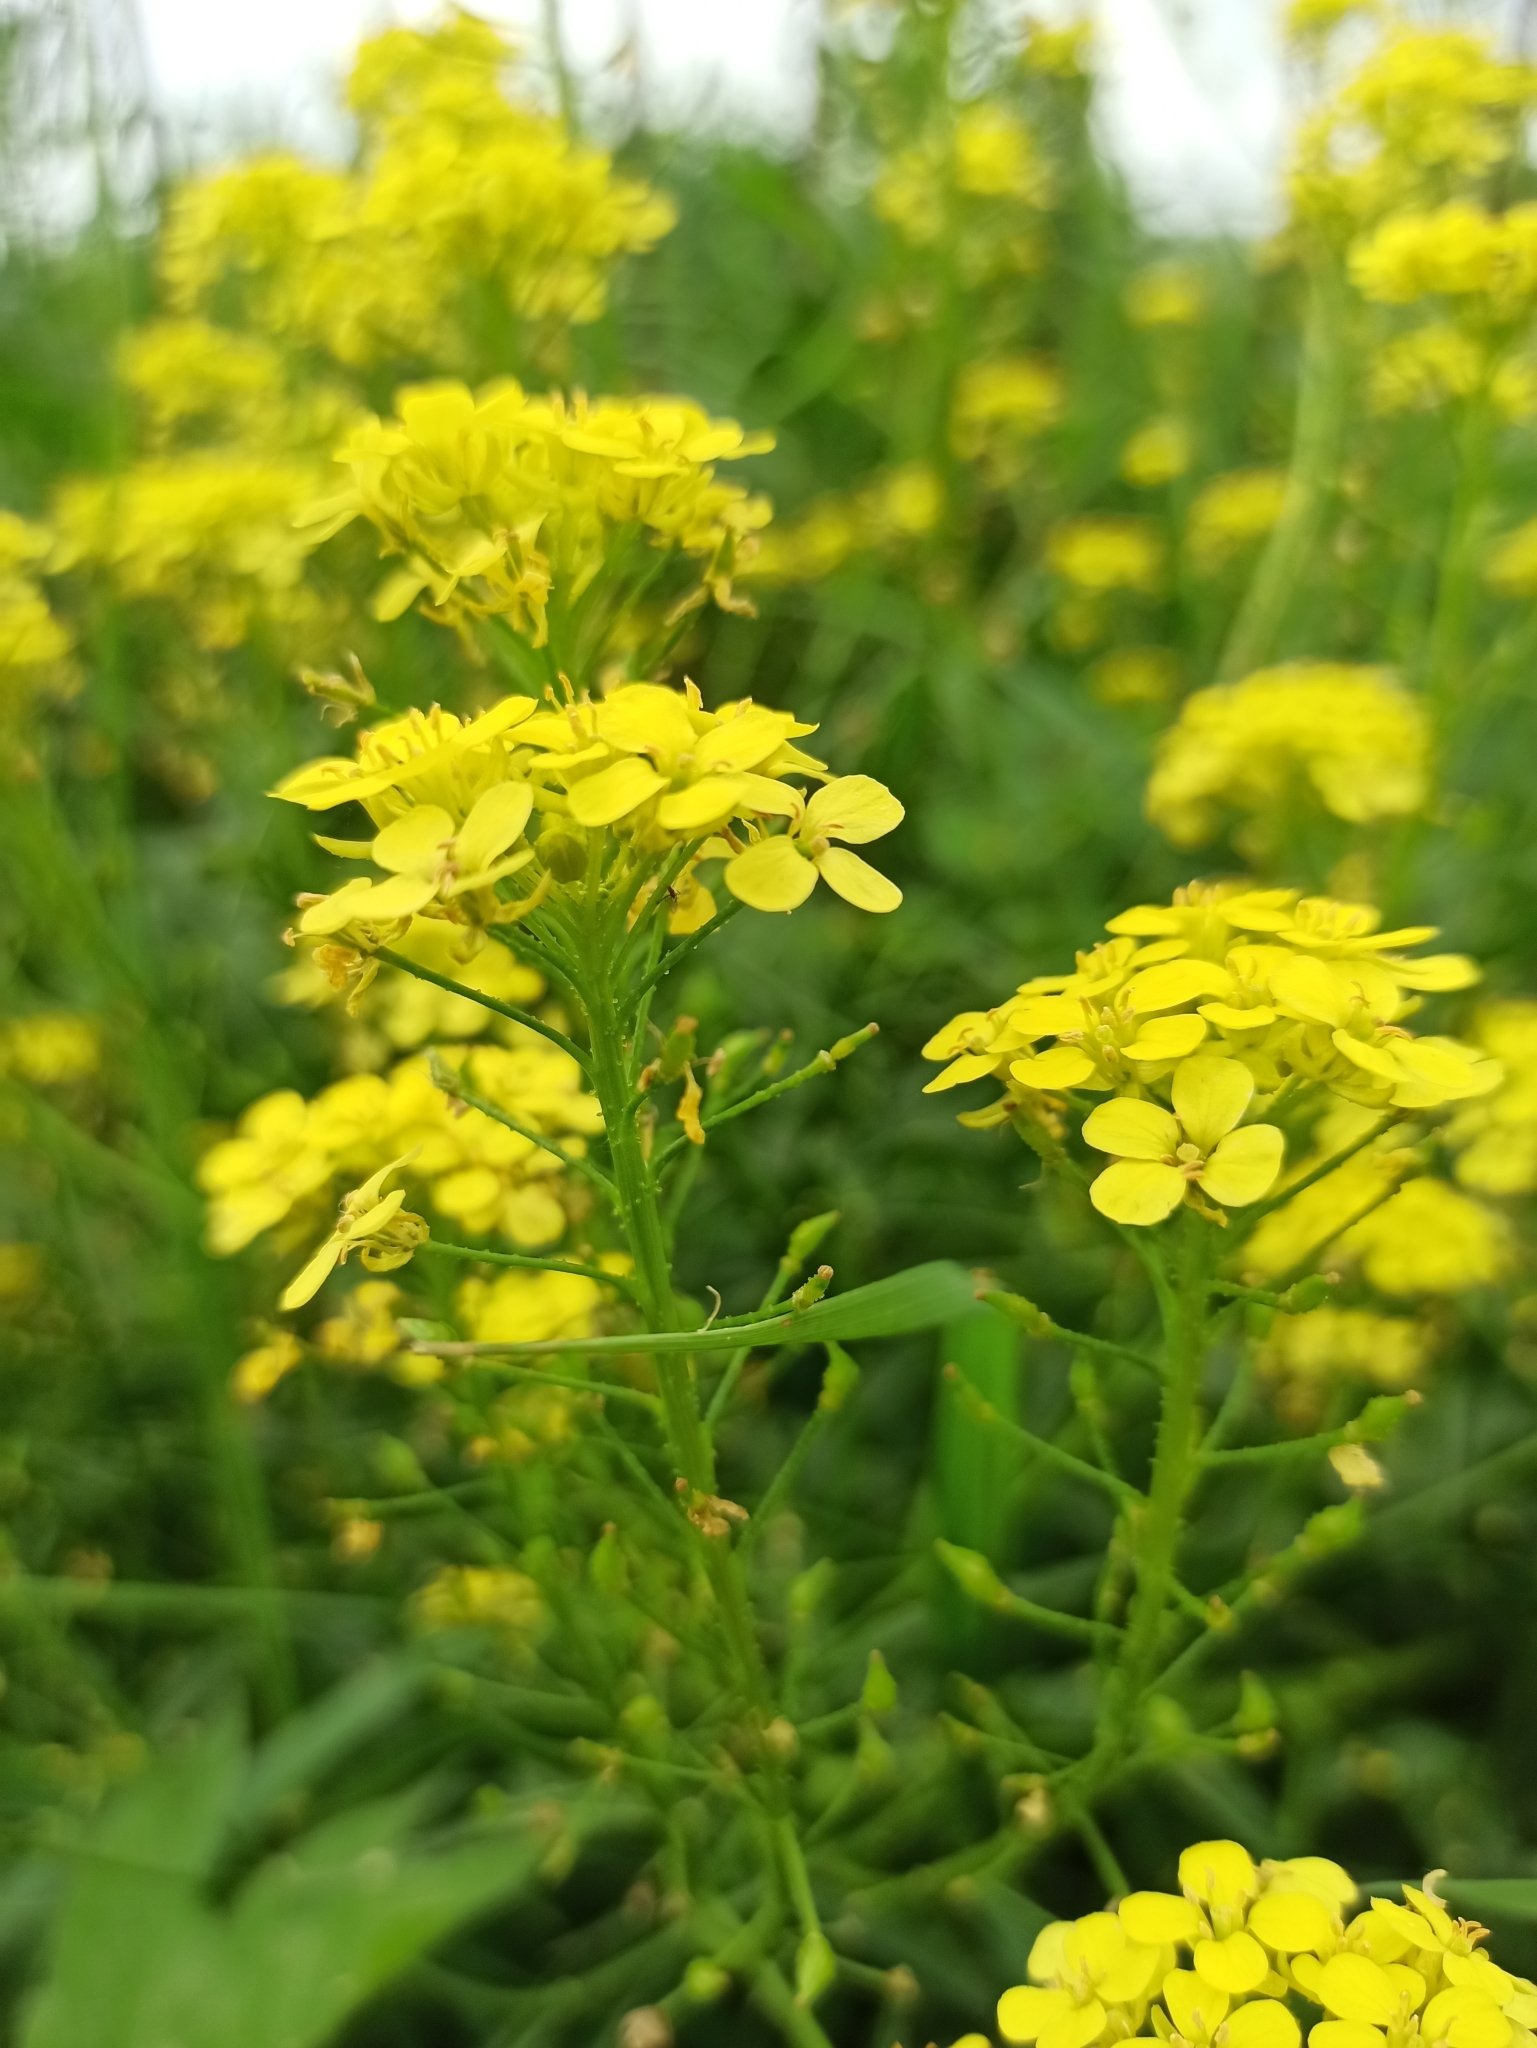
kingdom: Plantae
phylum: Tracheophyta
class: Magnoliopsida
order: Brassicales
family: Brassicaceae
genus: Bunias
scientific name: Bunias orientalis
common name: Warty-cabbage
